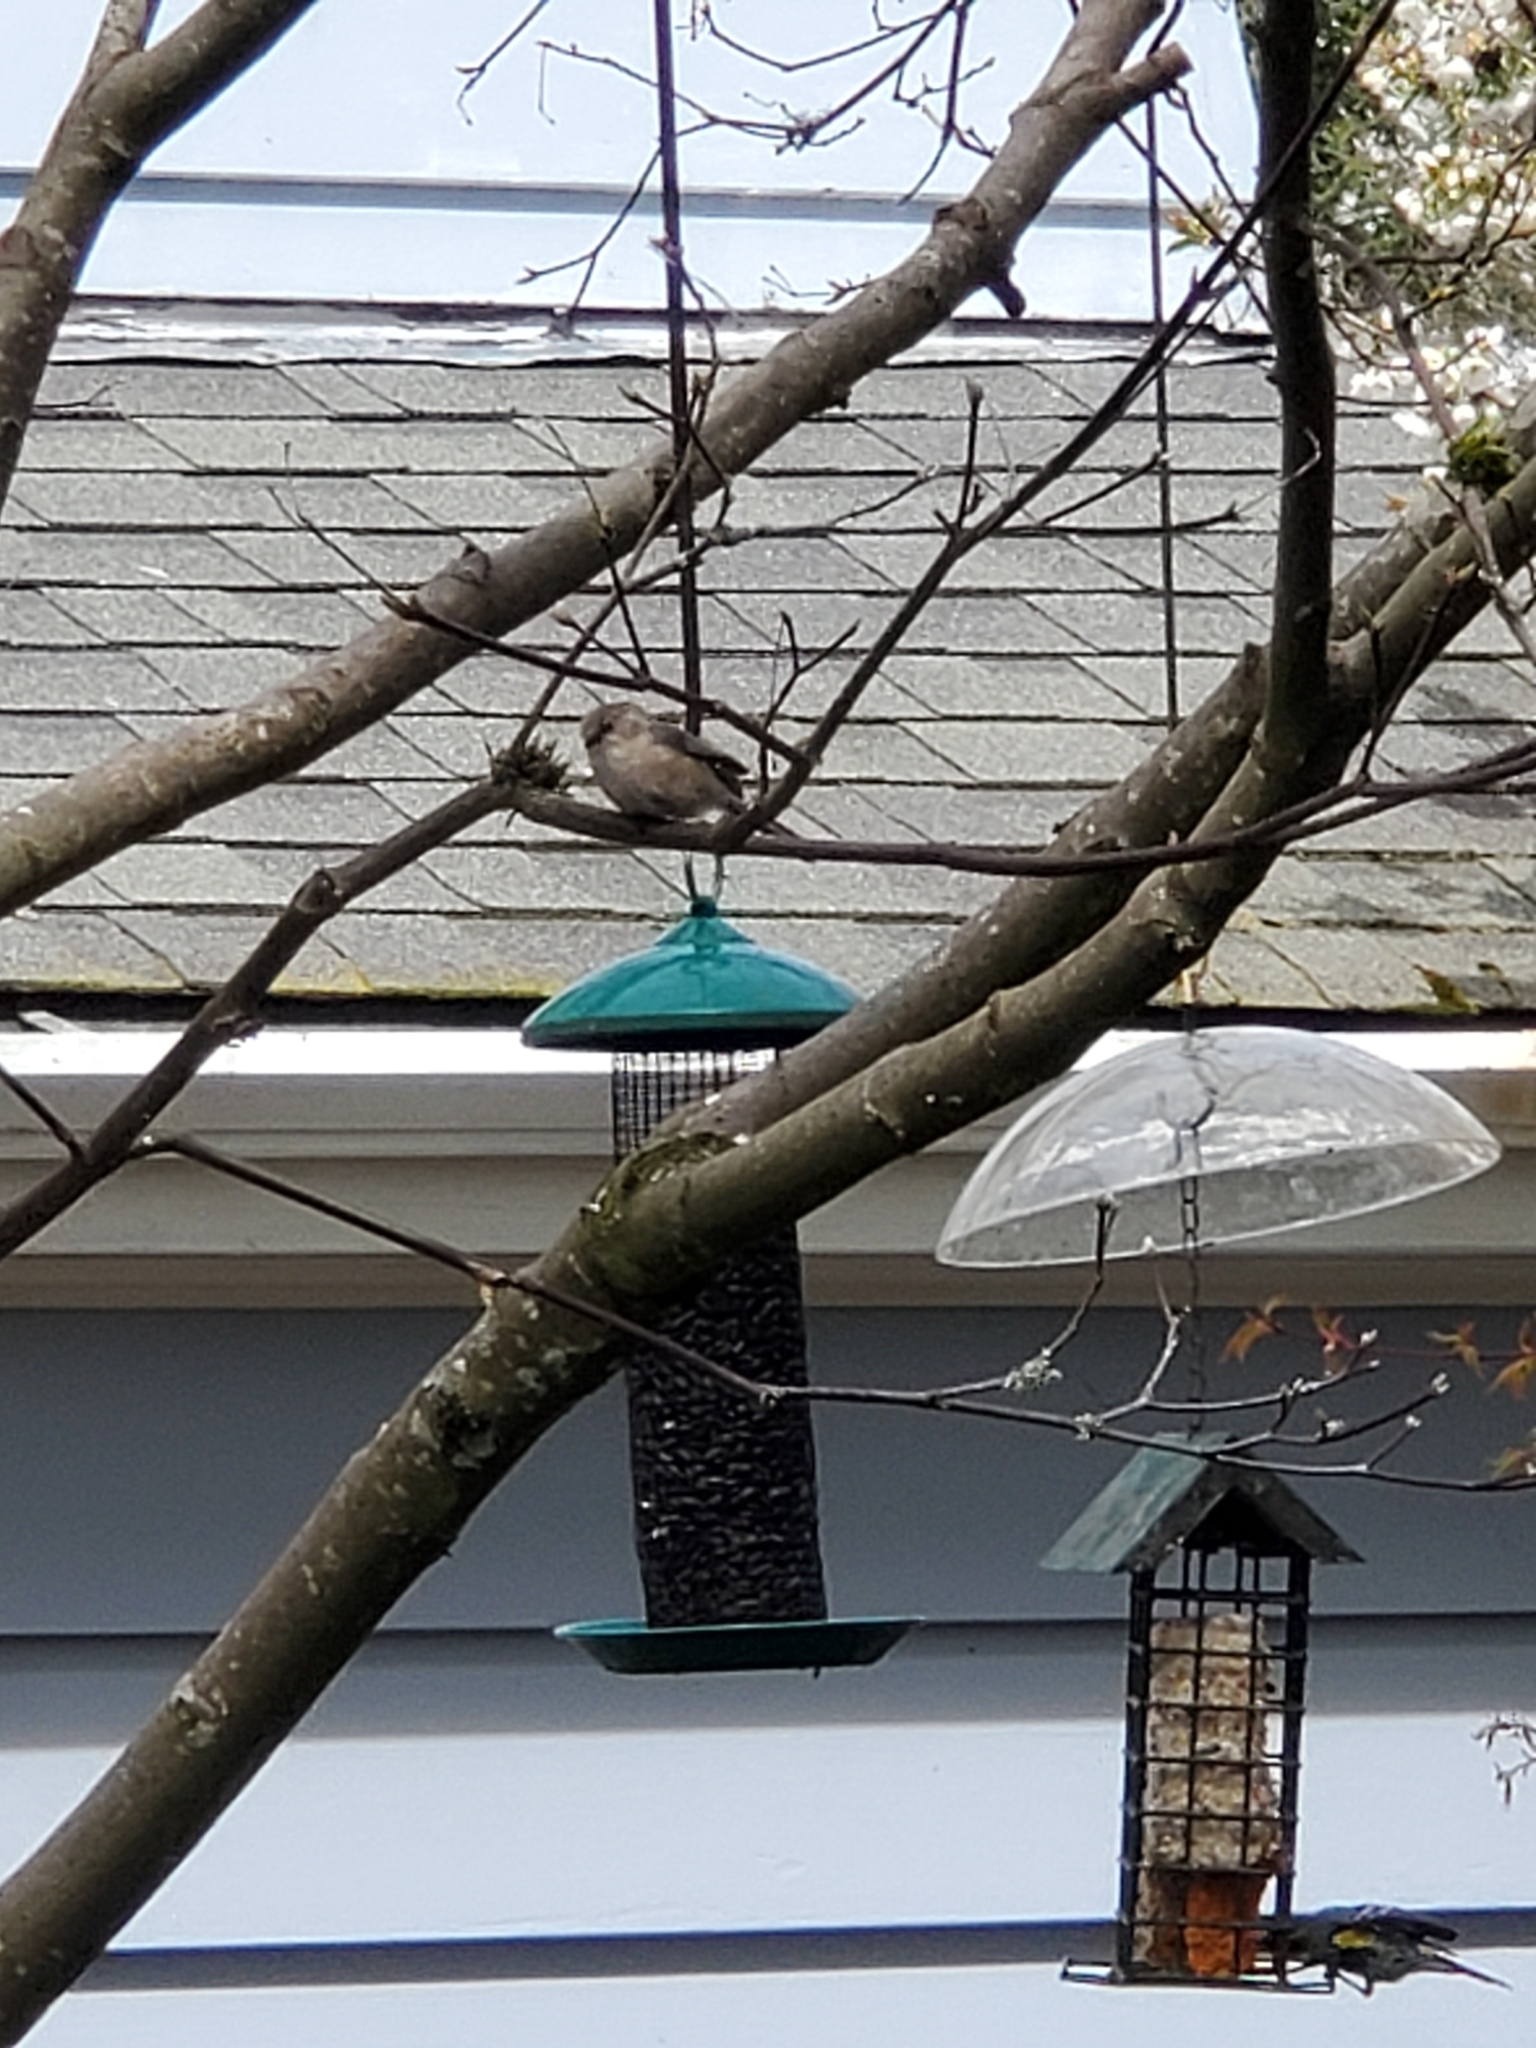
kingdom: Animalia
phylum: Chordata
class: Aves
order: Passeriformes
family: Aegithalidae
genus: Psaltriparus
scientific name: Psaltriparus minimus
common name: American bushtit
